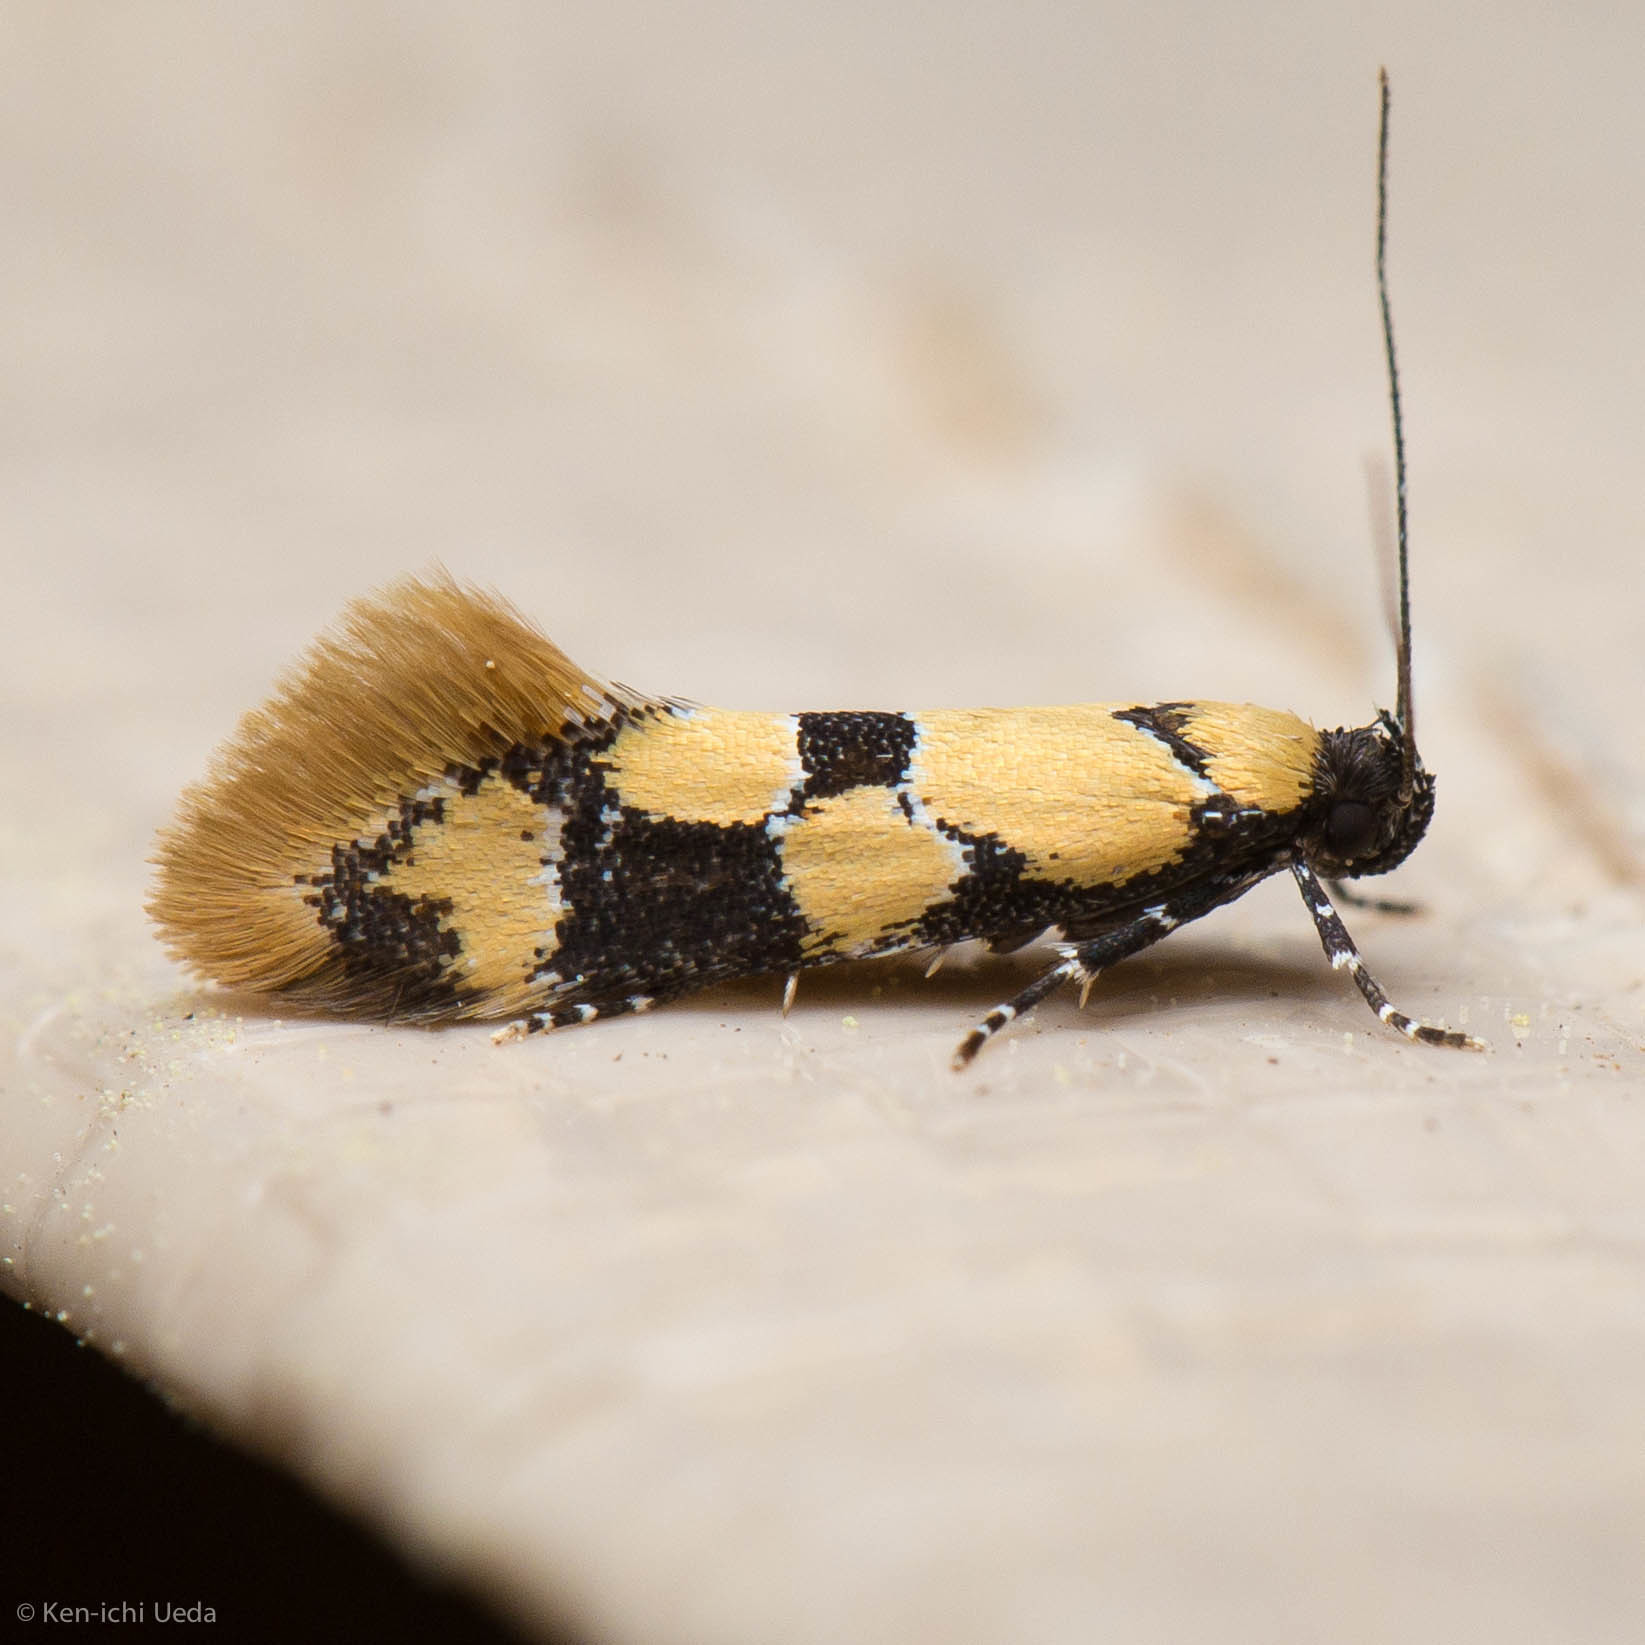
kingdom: Animalia
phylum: Arthropoda
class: Insecta
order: Lepidoptera
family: Oecophoridae
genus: Decantha
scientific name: Decantha stonda
